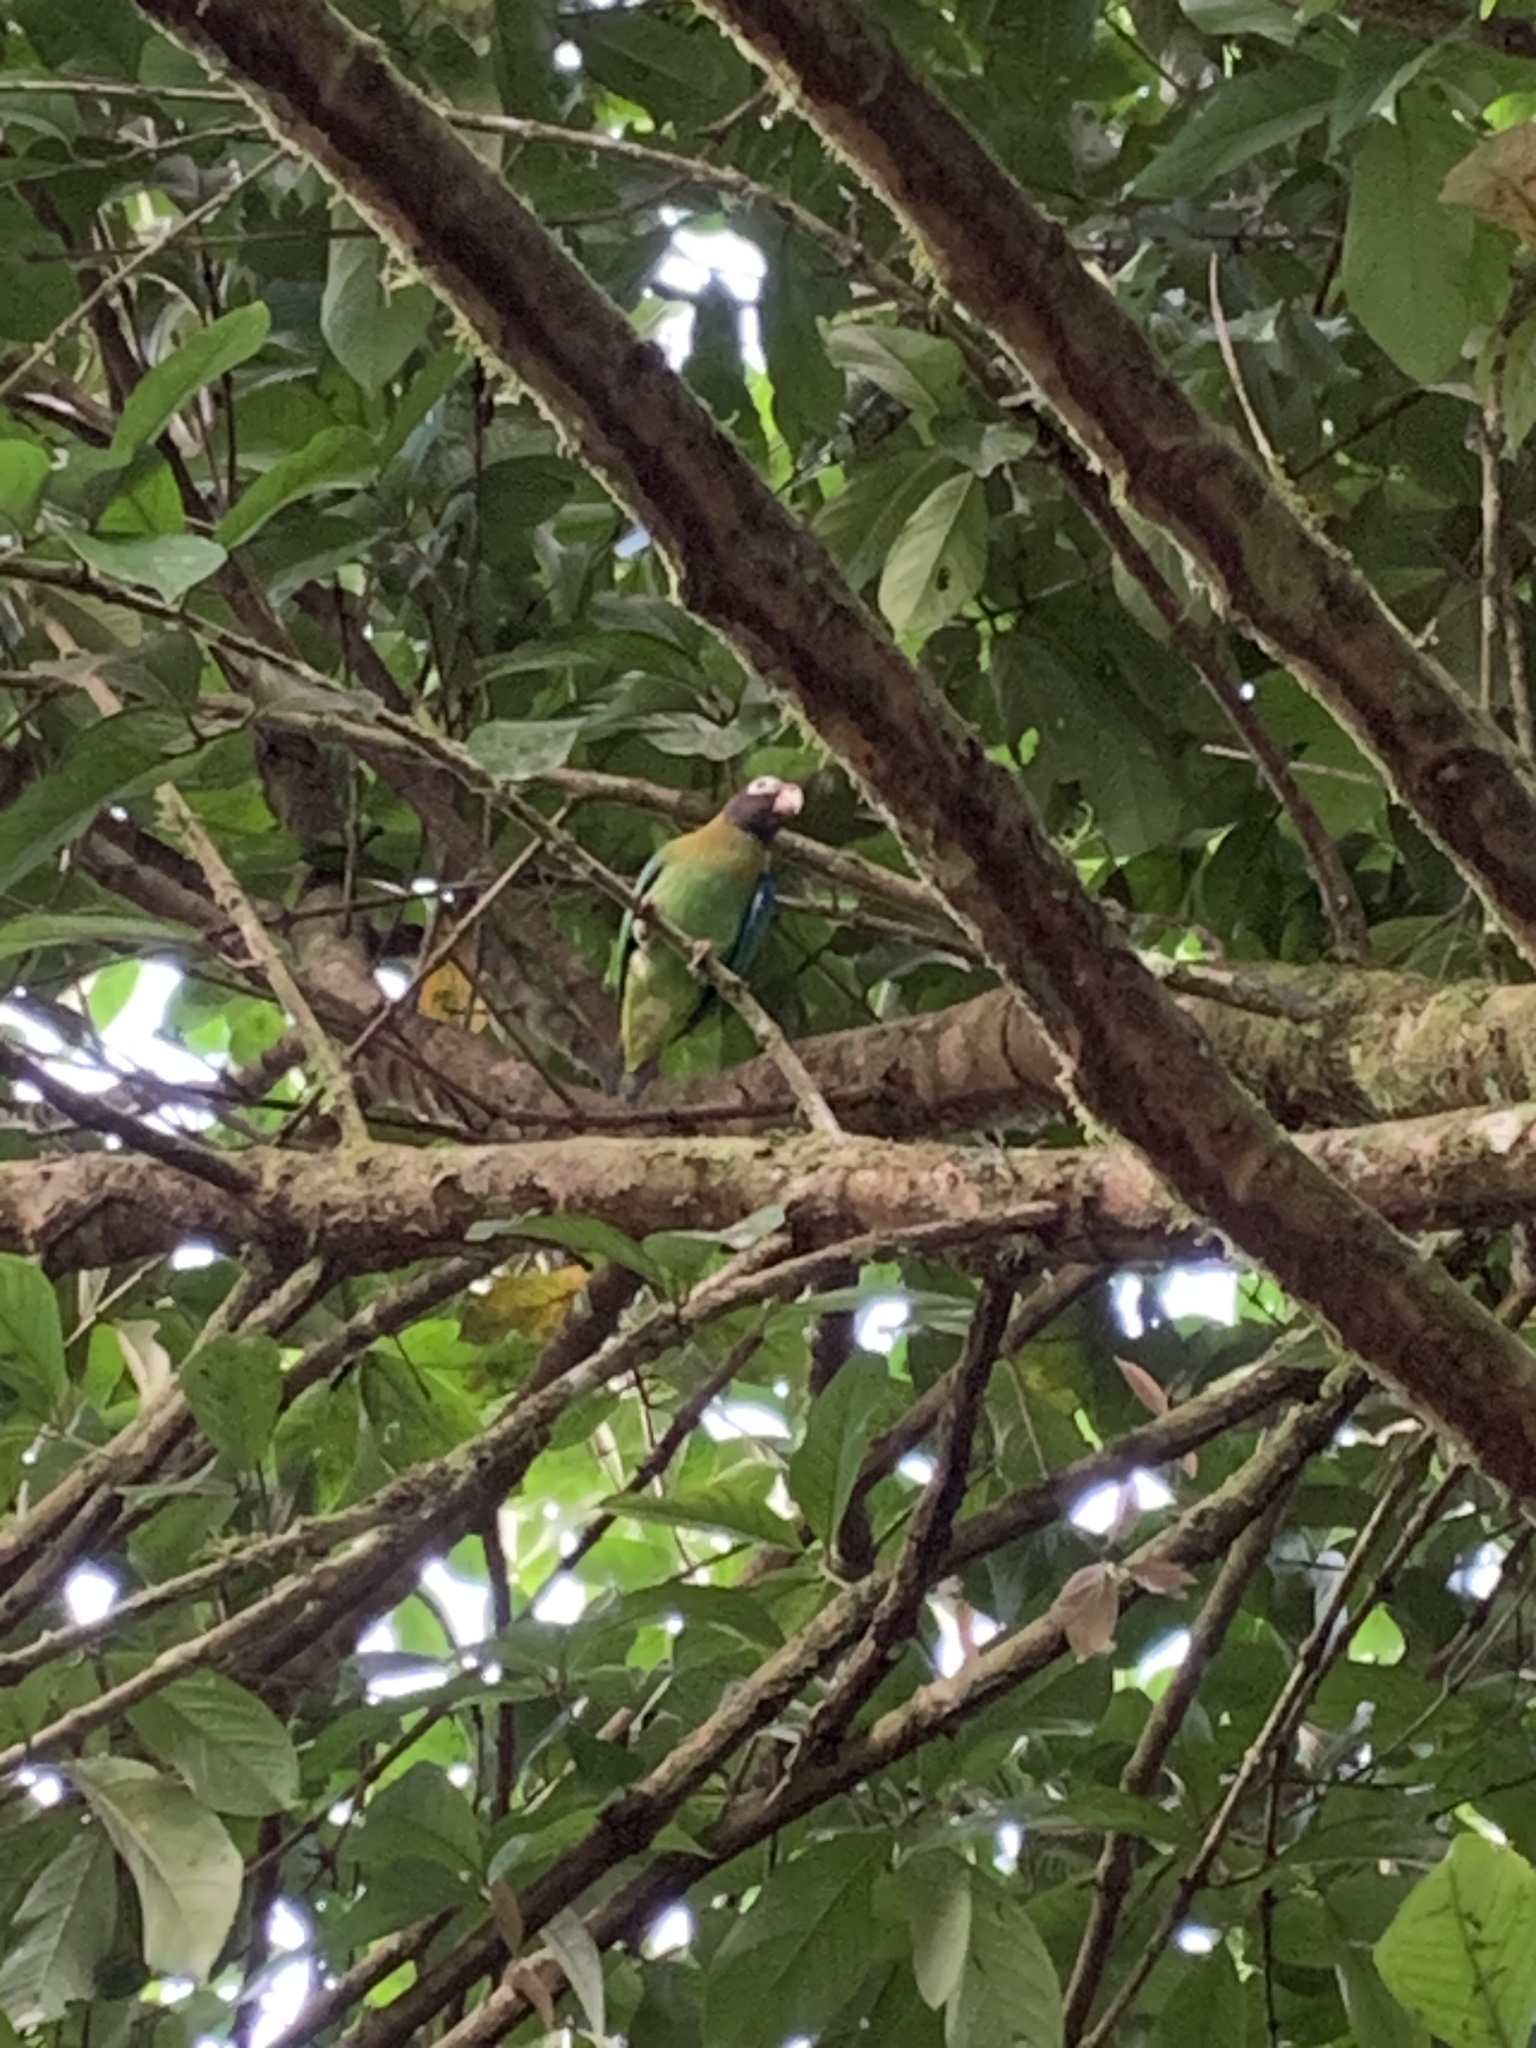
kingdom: Animalia
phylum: Chordata
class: Aves
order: Psittaciformes
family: Psittacidae
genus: Pionopsitta
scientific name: Pionopsitta haematotis
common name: Brown-hooded parrot
